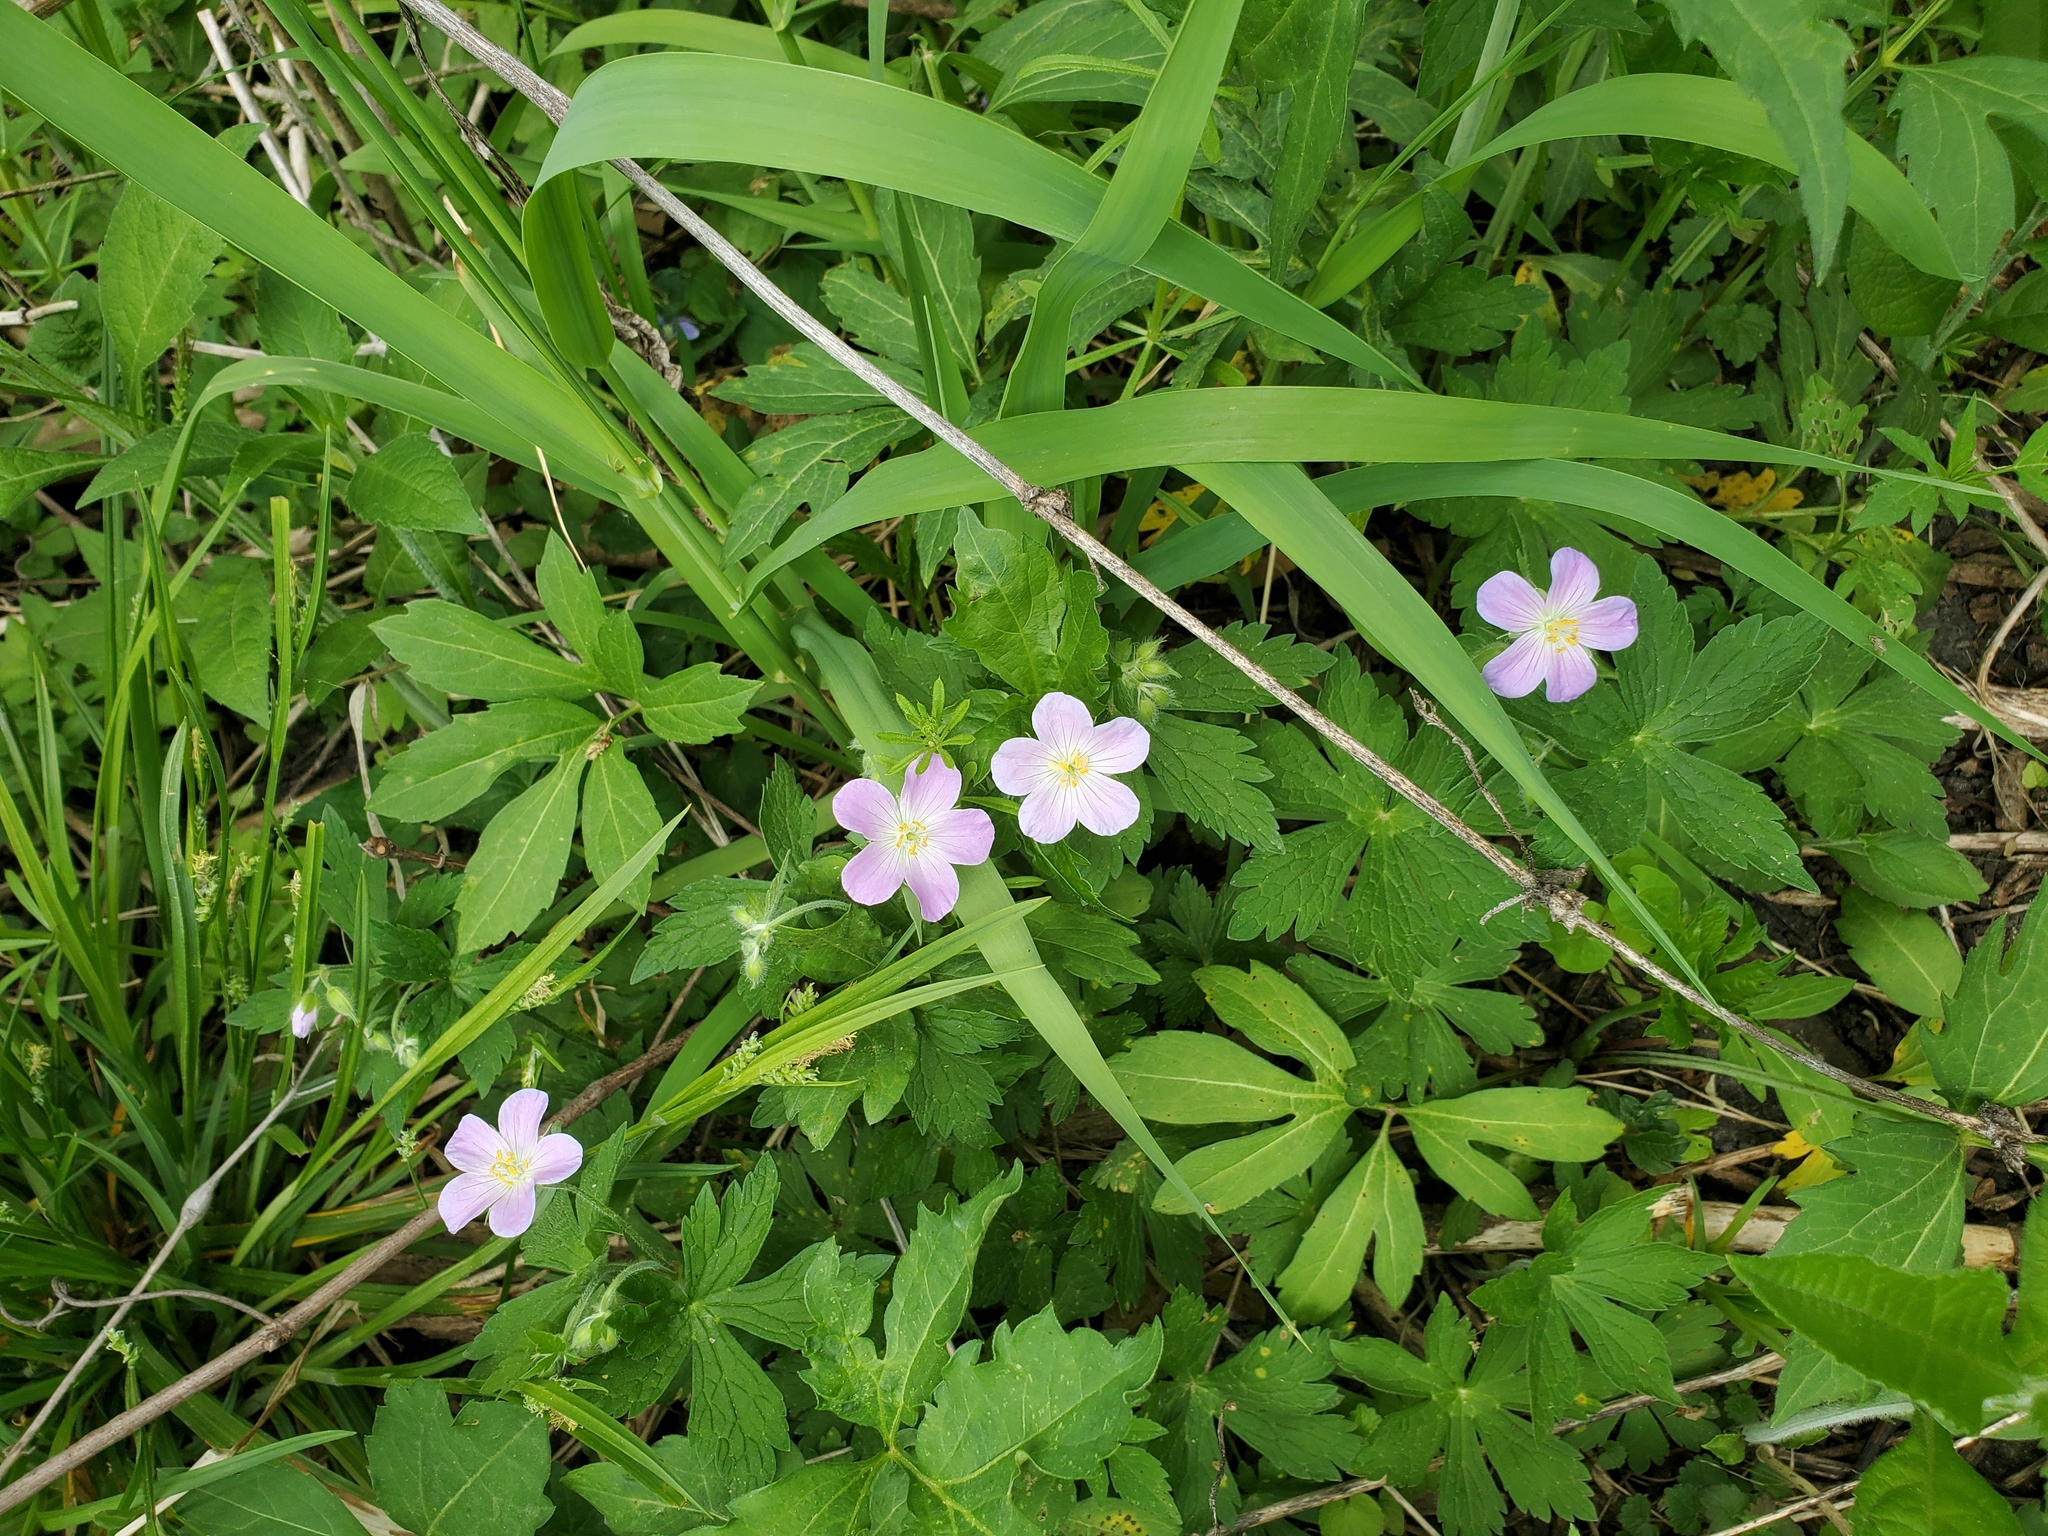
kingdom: Plantae
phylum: Tracheophyta
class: Magnoliopsida
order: Geraniales
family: Geraniaceae
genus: Geranium
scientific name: Geranium maculatum
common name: Spotted geranium
